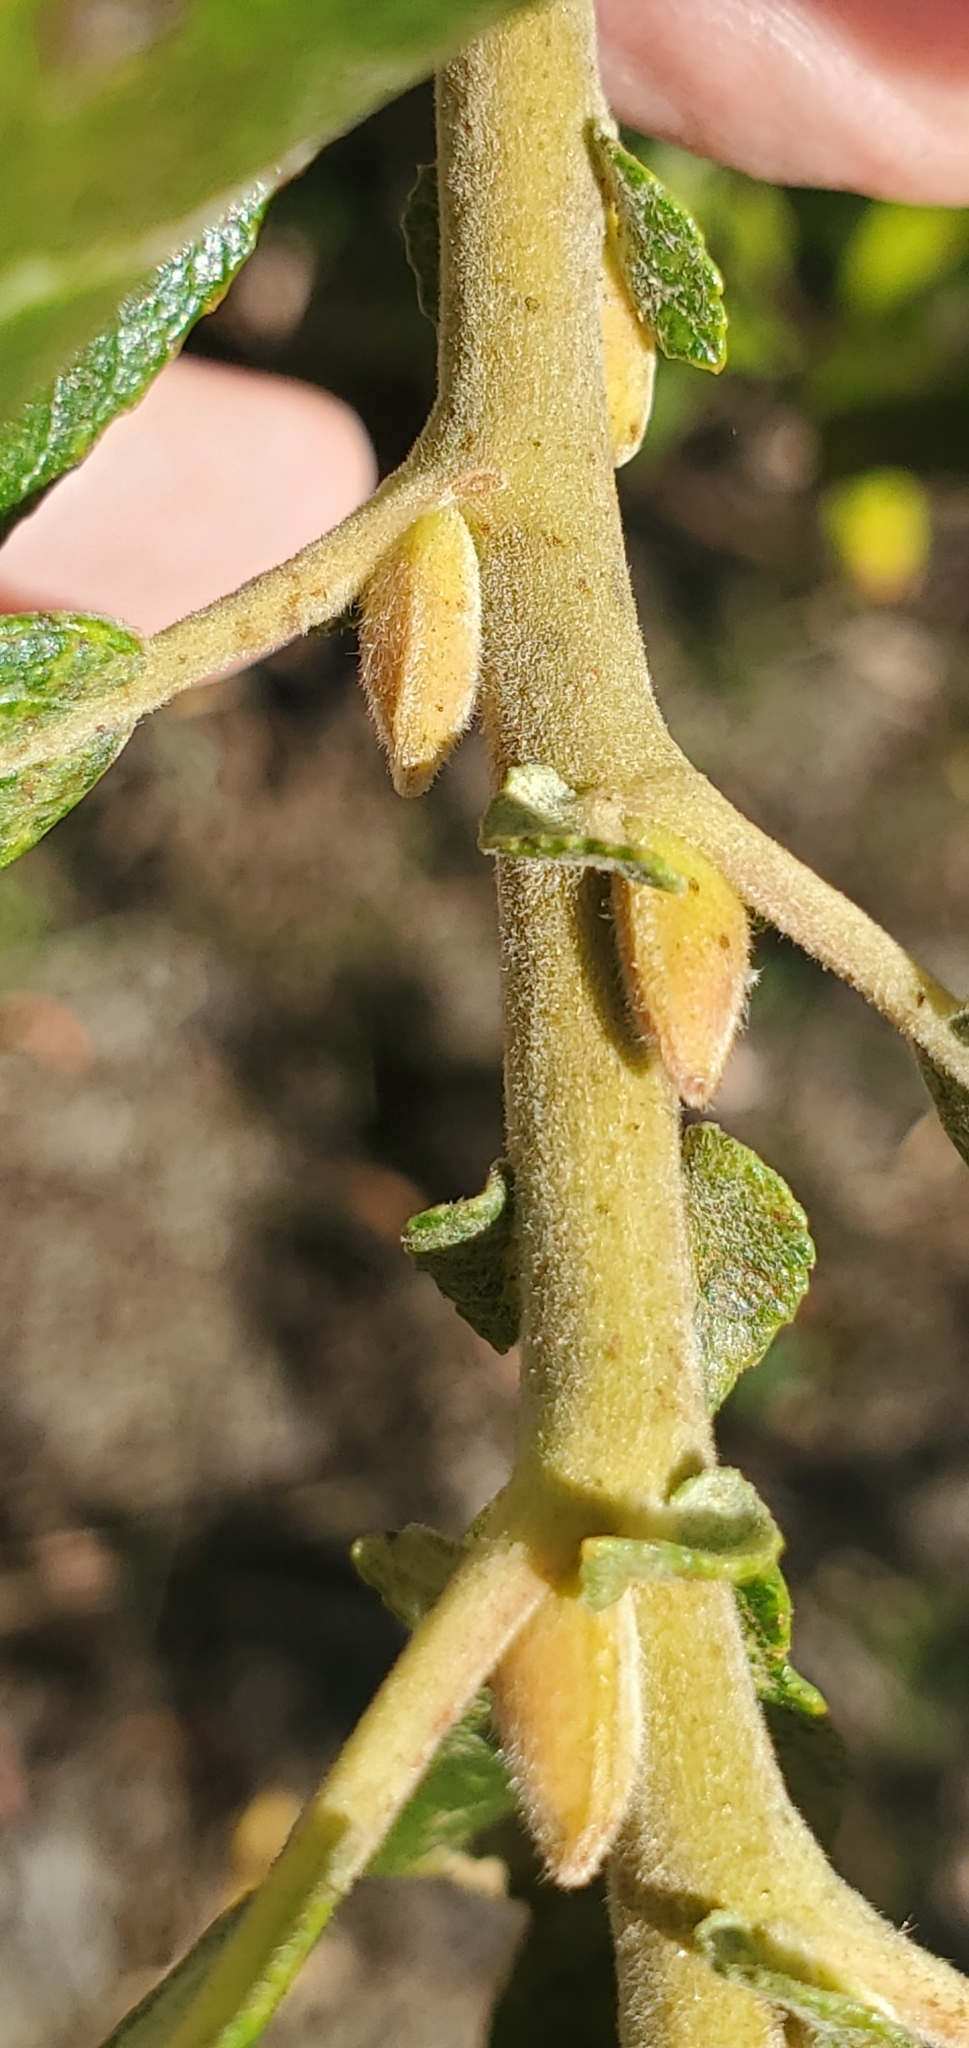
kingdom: Plantae
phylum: Tracheophyta
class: Magnoliopsida
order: Malpighiales
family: Salicaceae
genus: Salix
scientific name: Salix lasiolepis
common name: Arroyo willow
